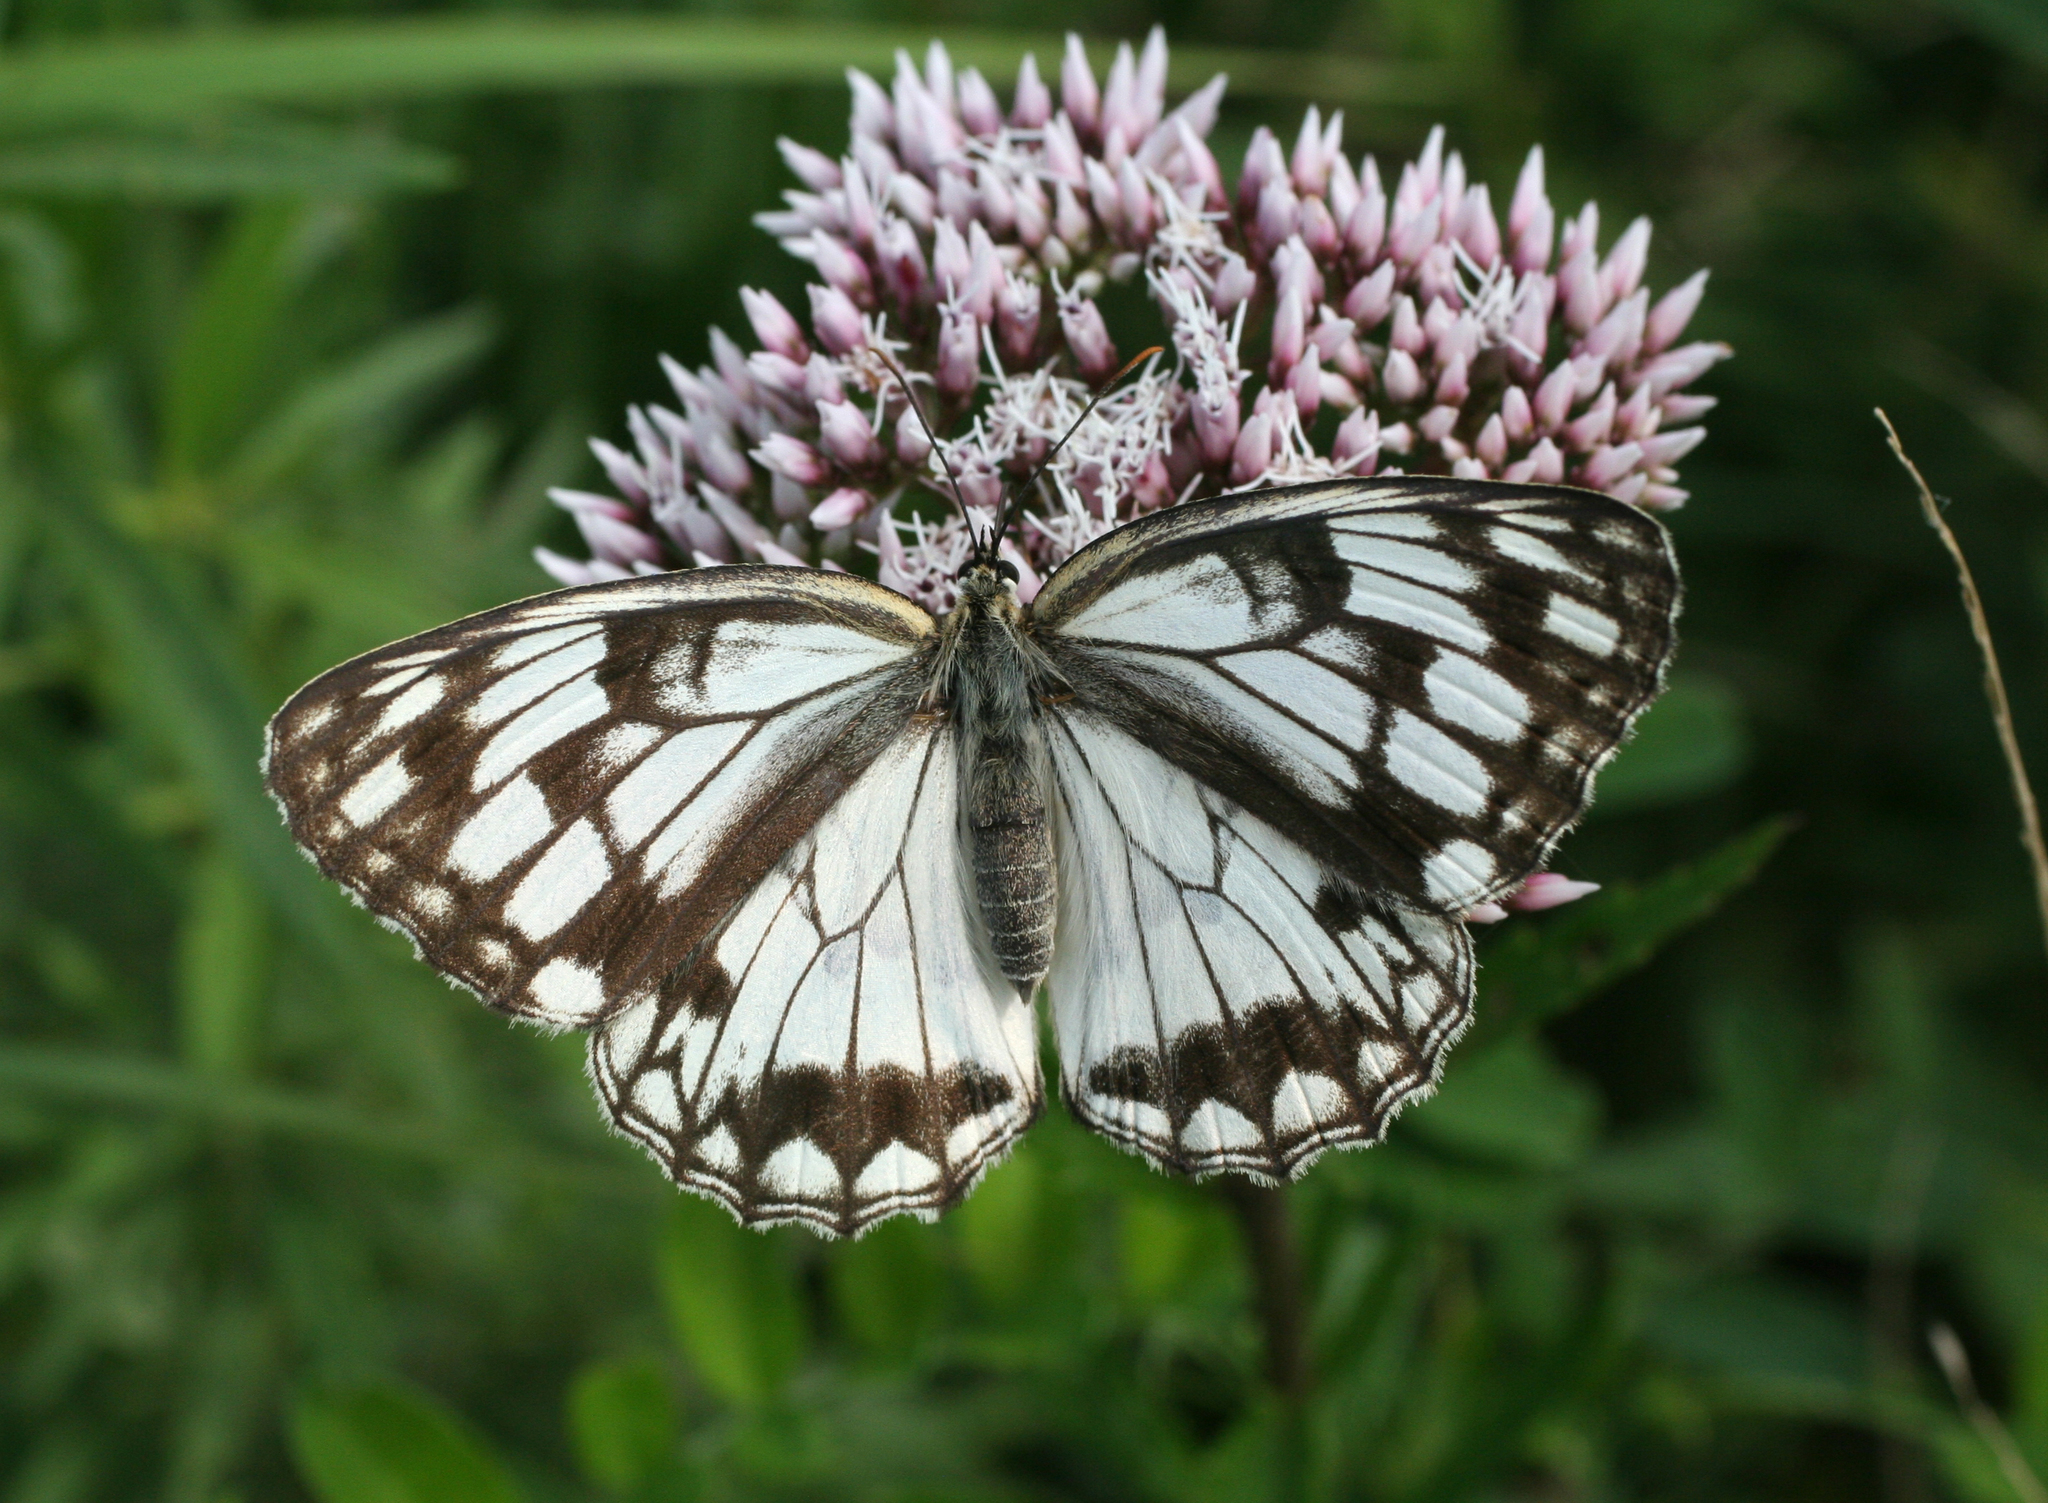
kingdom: Animalia
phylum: Arthropoda
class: Insecta
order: Lepidoptera
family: Nymphalidae
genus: Melanargia
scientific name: Melanargia halimede
